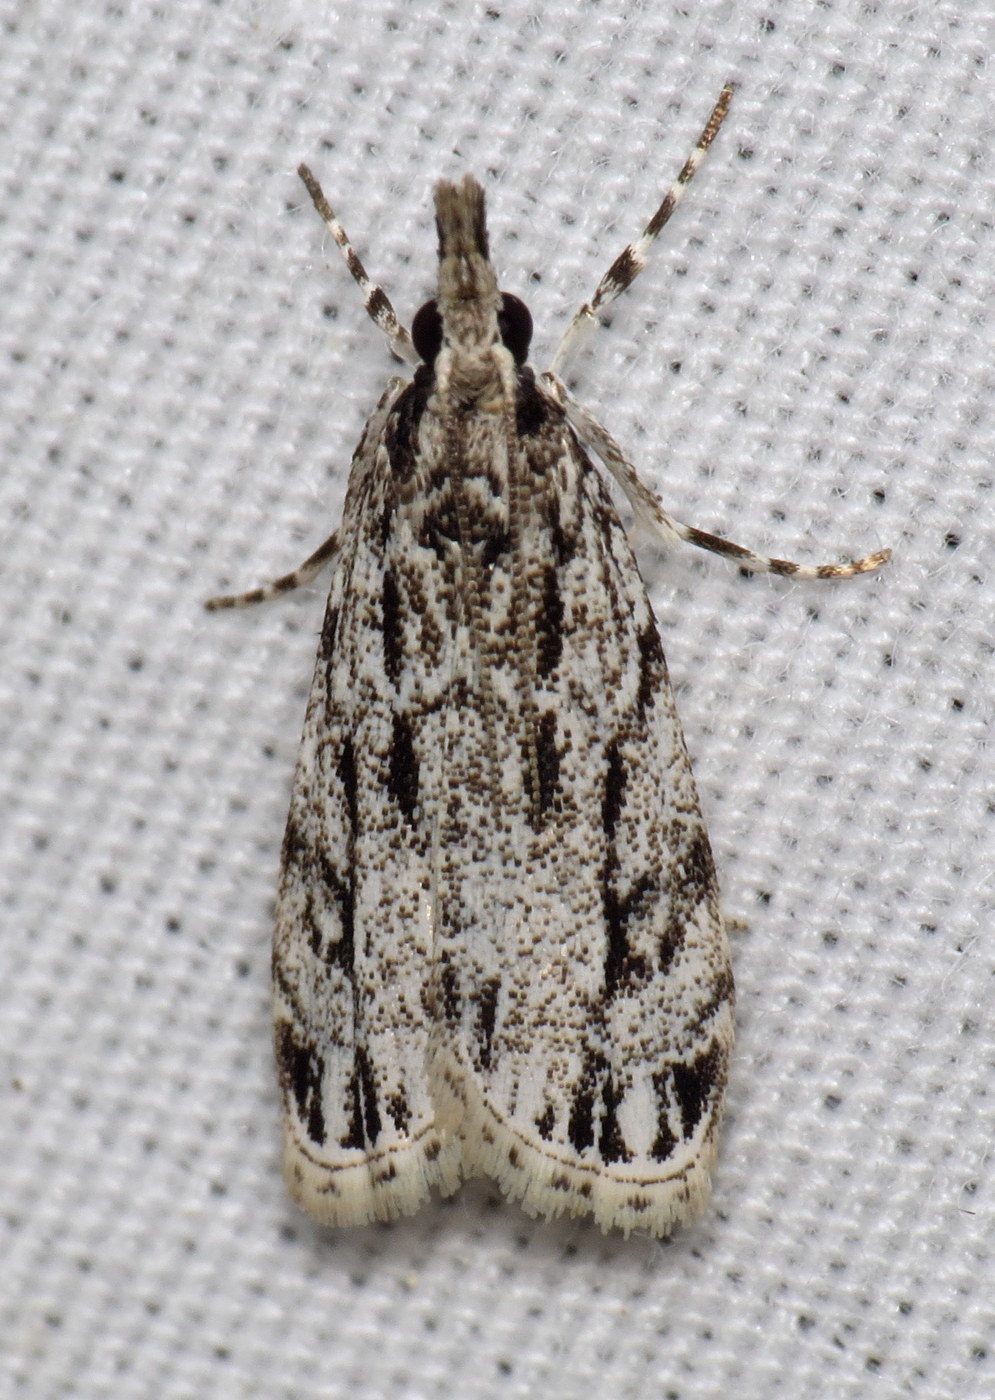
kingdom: Animalia
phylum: Arthropoda
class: Insecta
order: Lepidoptera
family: Crambidae
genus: Eudonia
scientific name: Eudonia strigalis
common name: Striped eudonia moth
